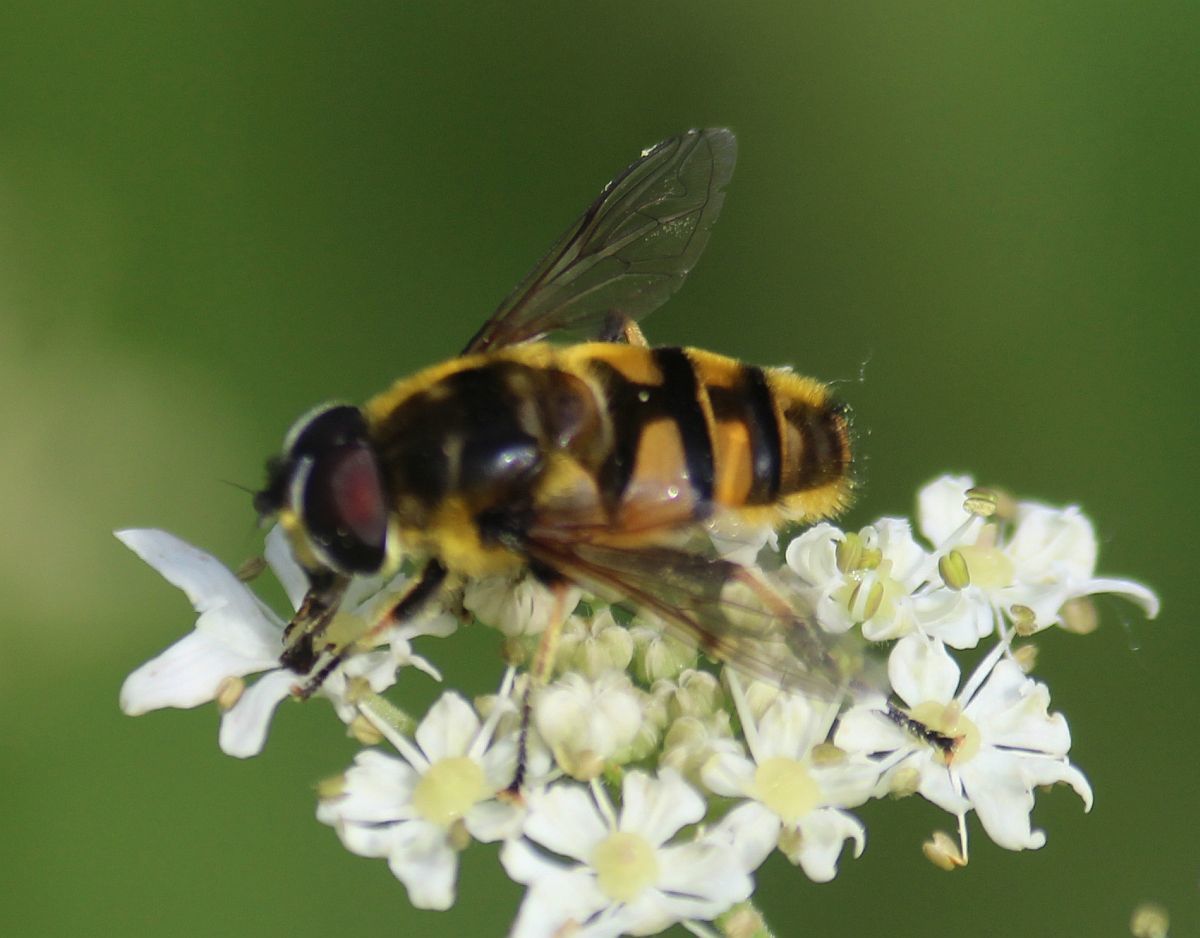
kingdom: Animalia
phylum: Arthropoda
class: Insecta
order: Diptera
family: Syrphidae
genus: Myathropa
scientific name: Myathropa florea
